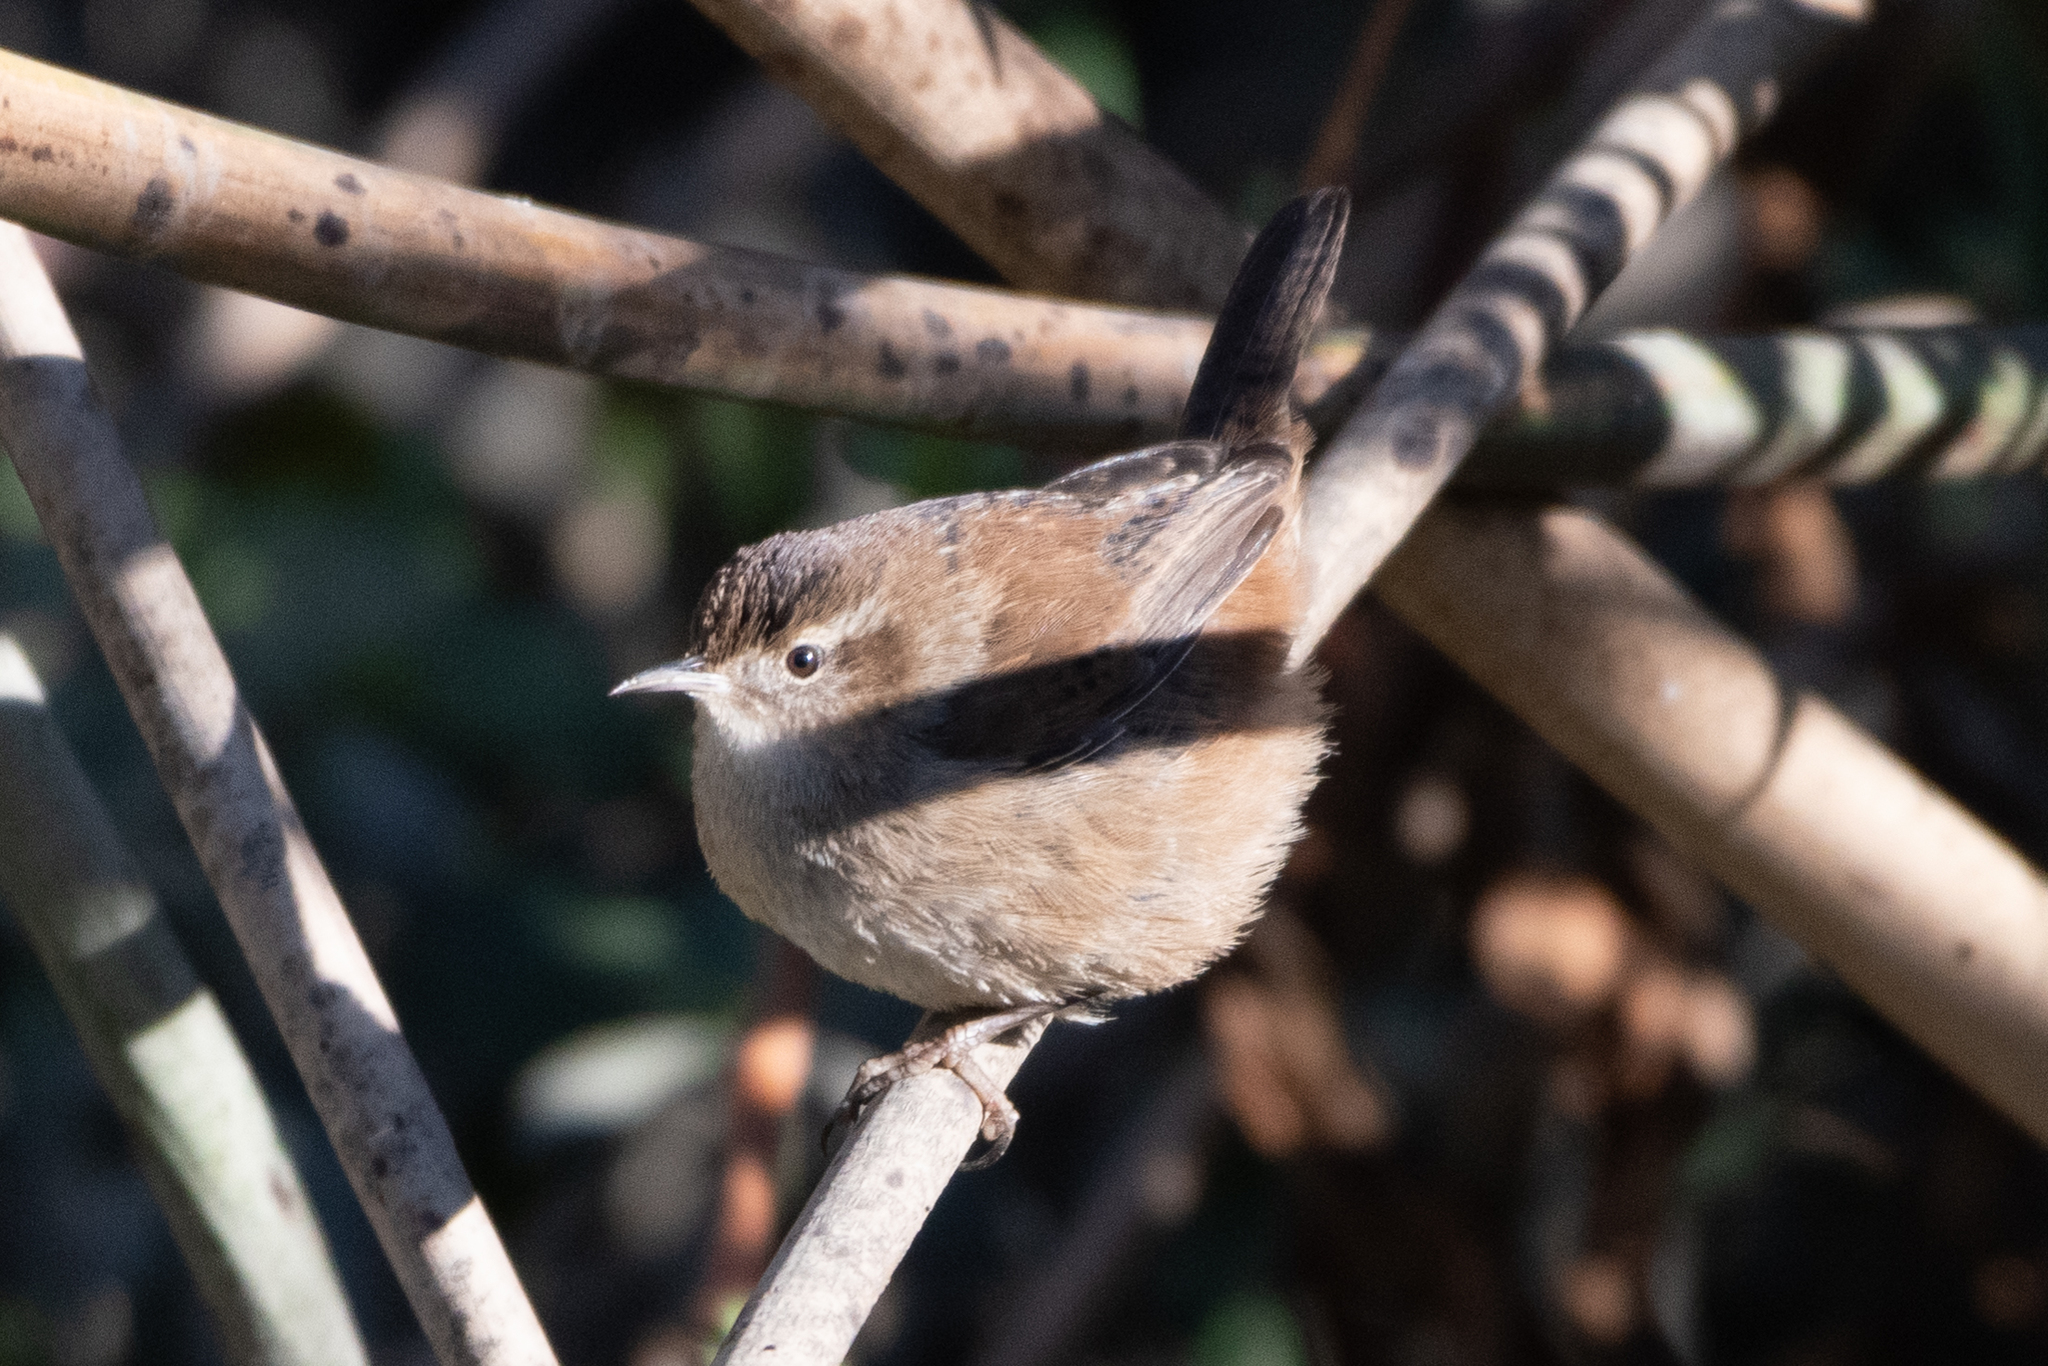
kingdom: Animalia
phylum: Chordata
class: Aves
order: Passeriformes
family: Troglodytidae
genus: Cistothorus
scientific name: Cistothorus palustris
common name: Marsh wren
